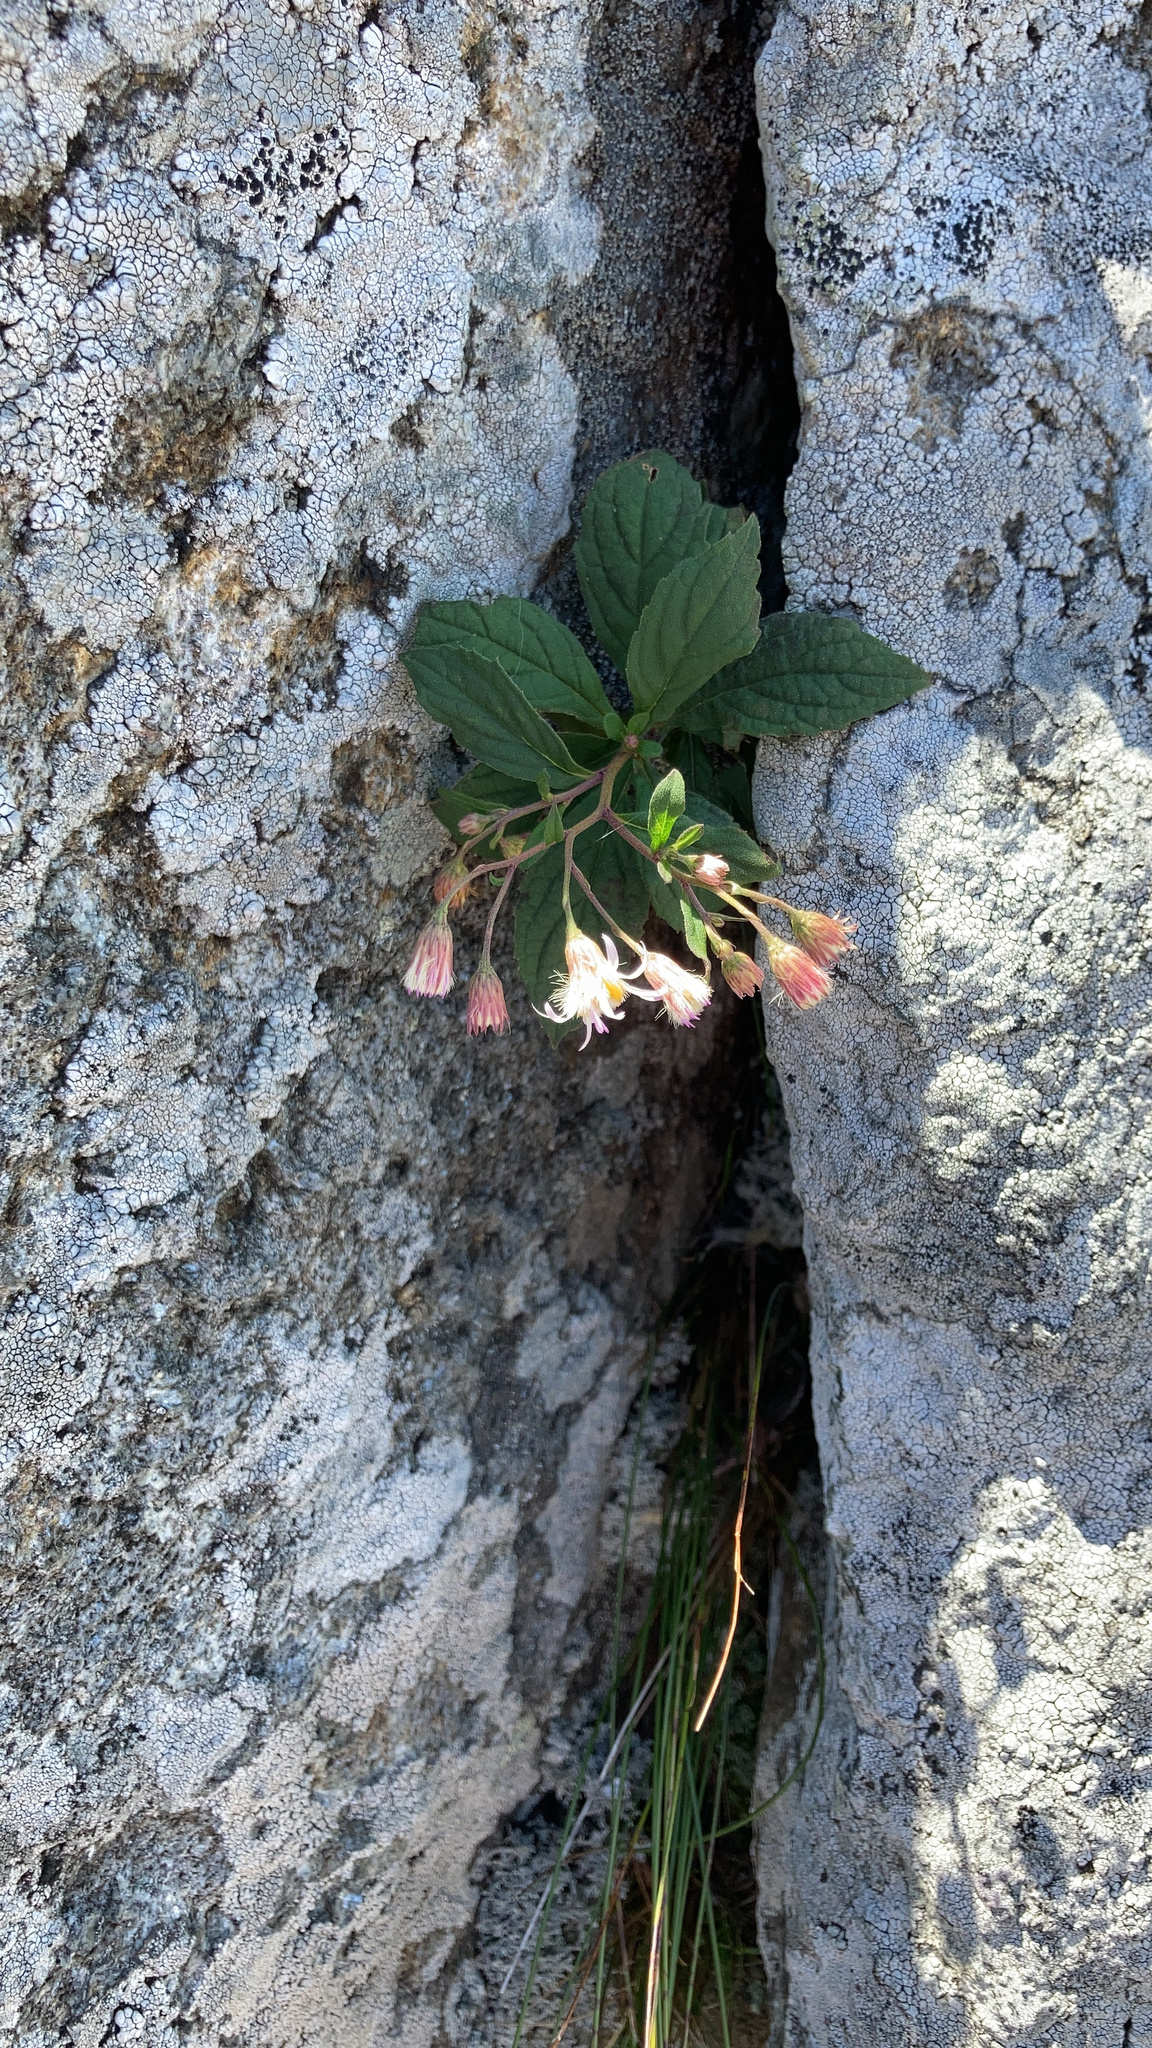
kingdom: Plantae
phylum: Tracheophyta
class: Magnoliopsida
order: Asterales
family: Asteraceae
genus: Oclemena
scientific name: Oclemena acuminata
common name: Mountain aster
